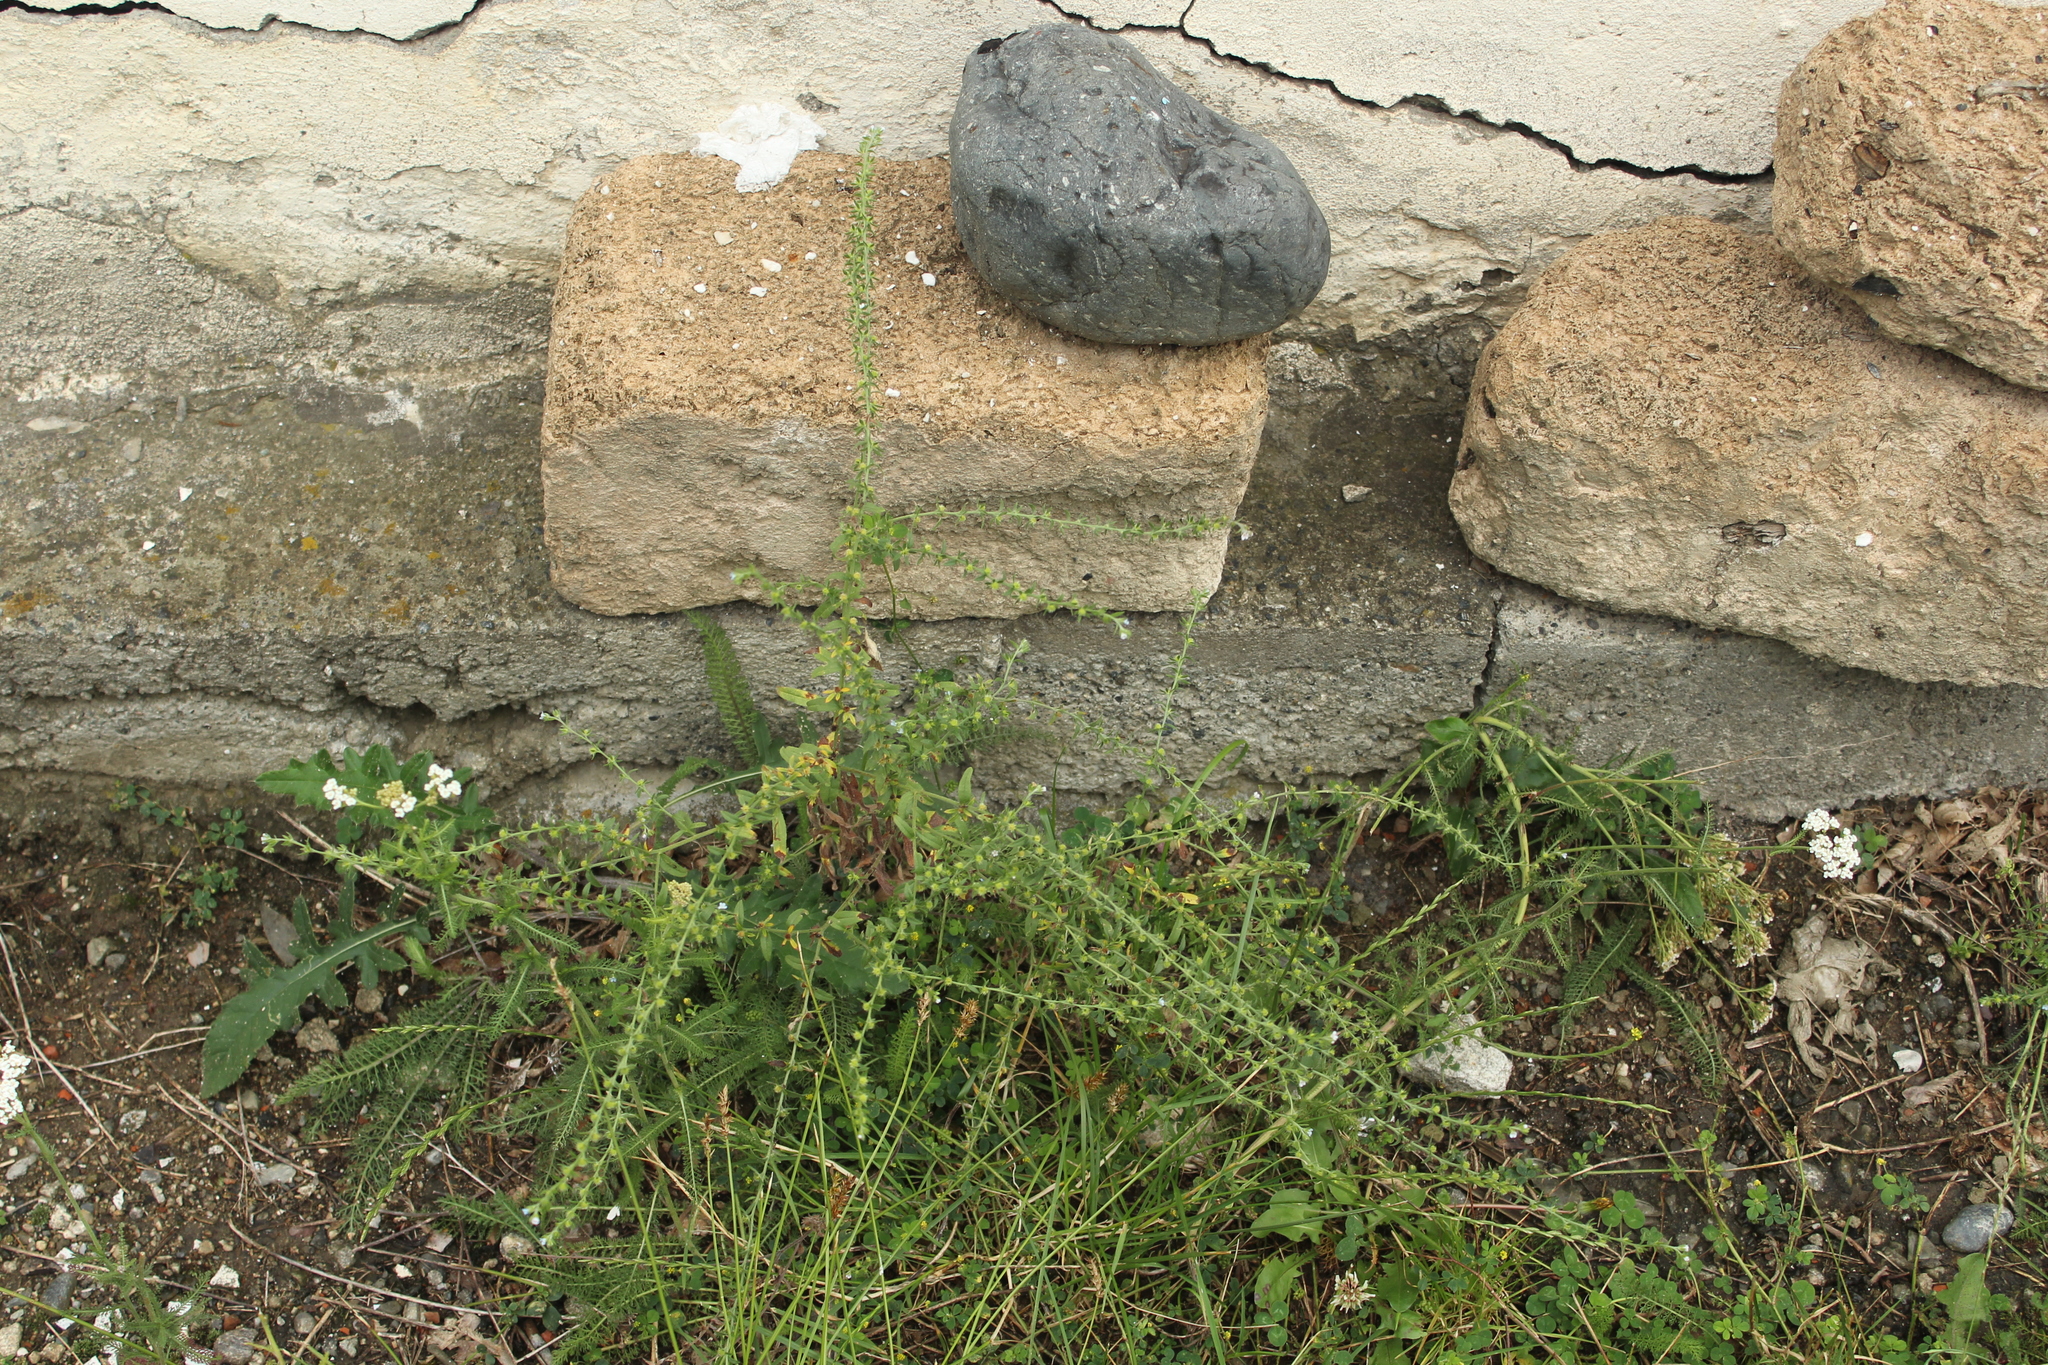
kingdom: Plantae
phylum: Tracheophyta
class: Magnoliopsida
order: Boraginales
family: Boraginaceae
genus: Lappula
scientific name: Lappula squarrosa
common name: European stickseed
